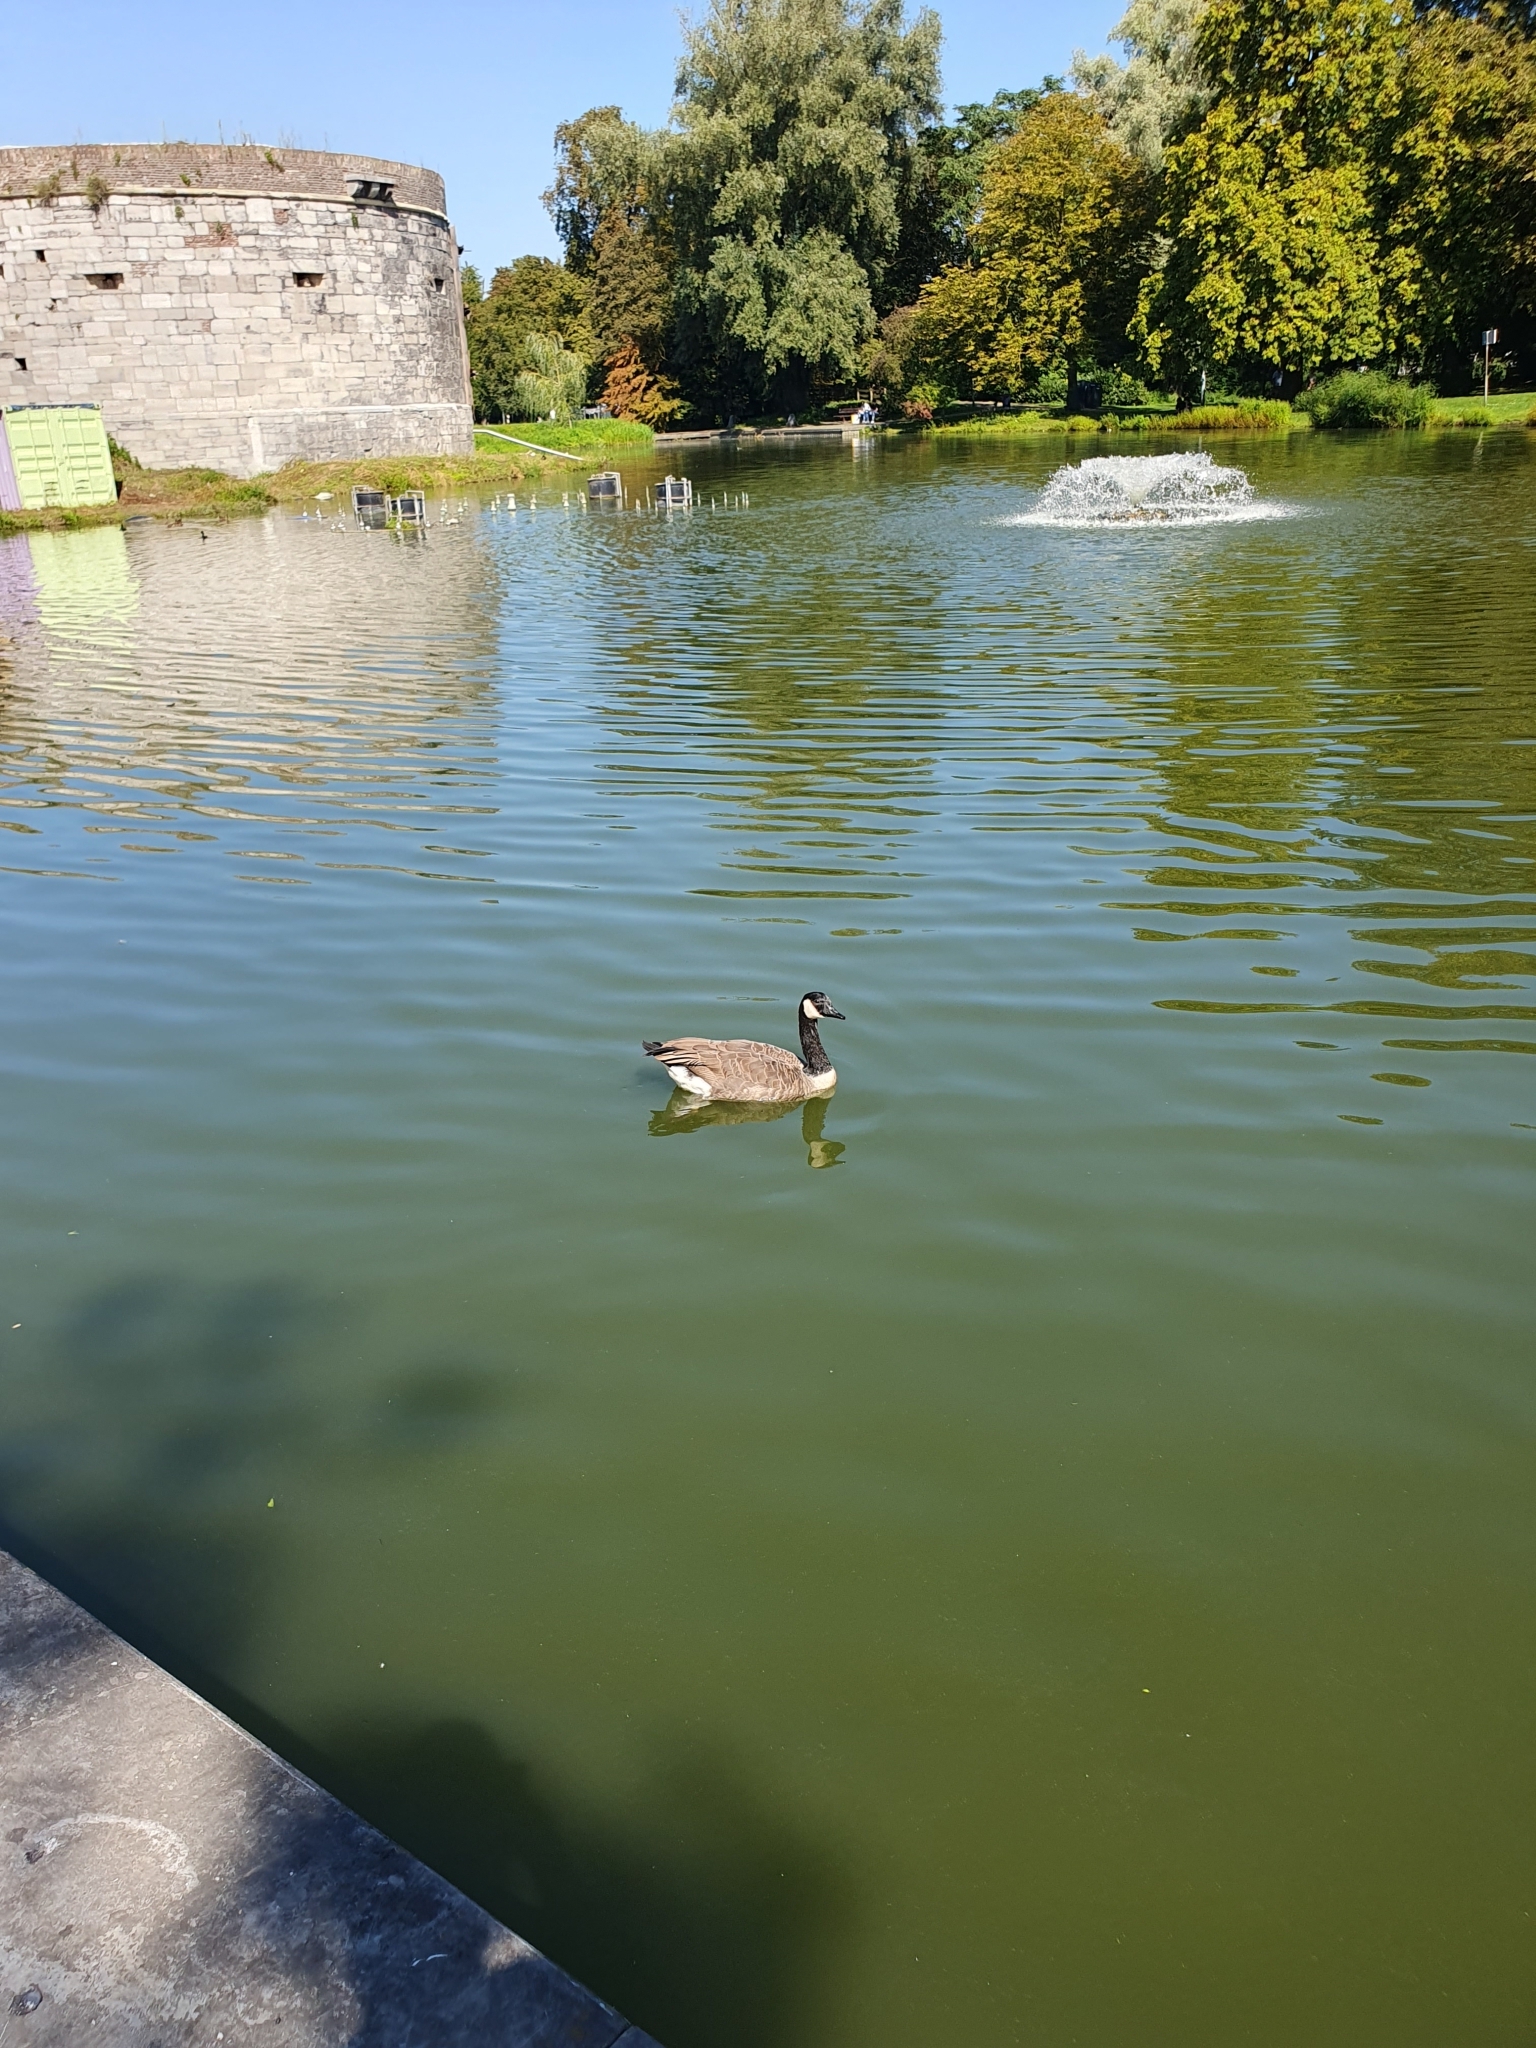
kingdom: Animalia
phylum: Chordata
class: Aves
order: Anseriformes
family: Anatidae
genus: Branta
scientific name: Branta canadensis
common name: Canada goose
